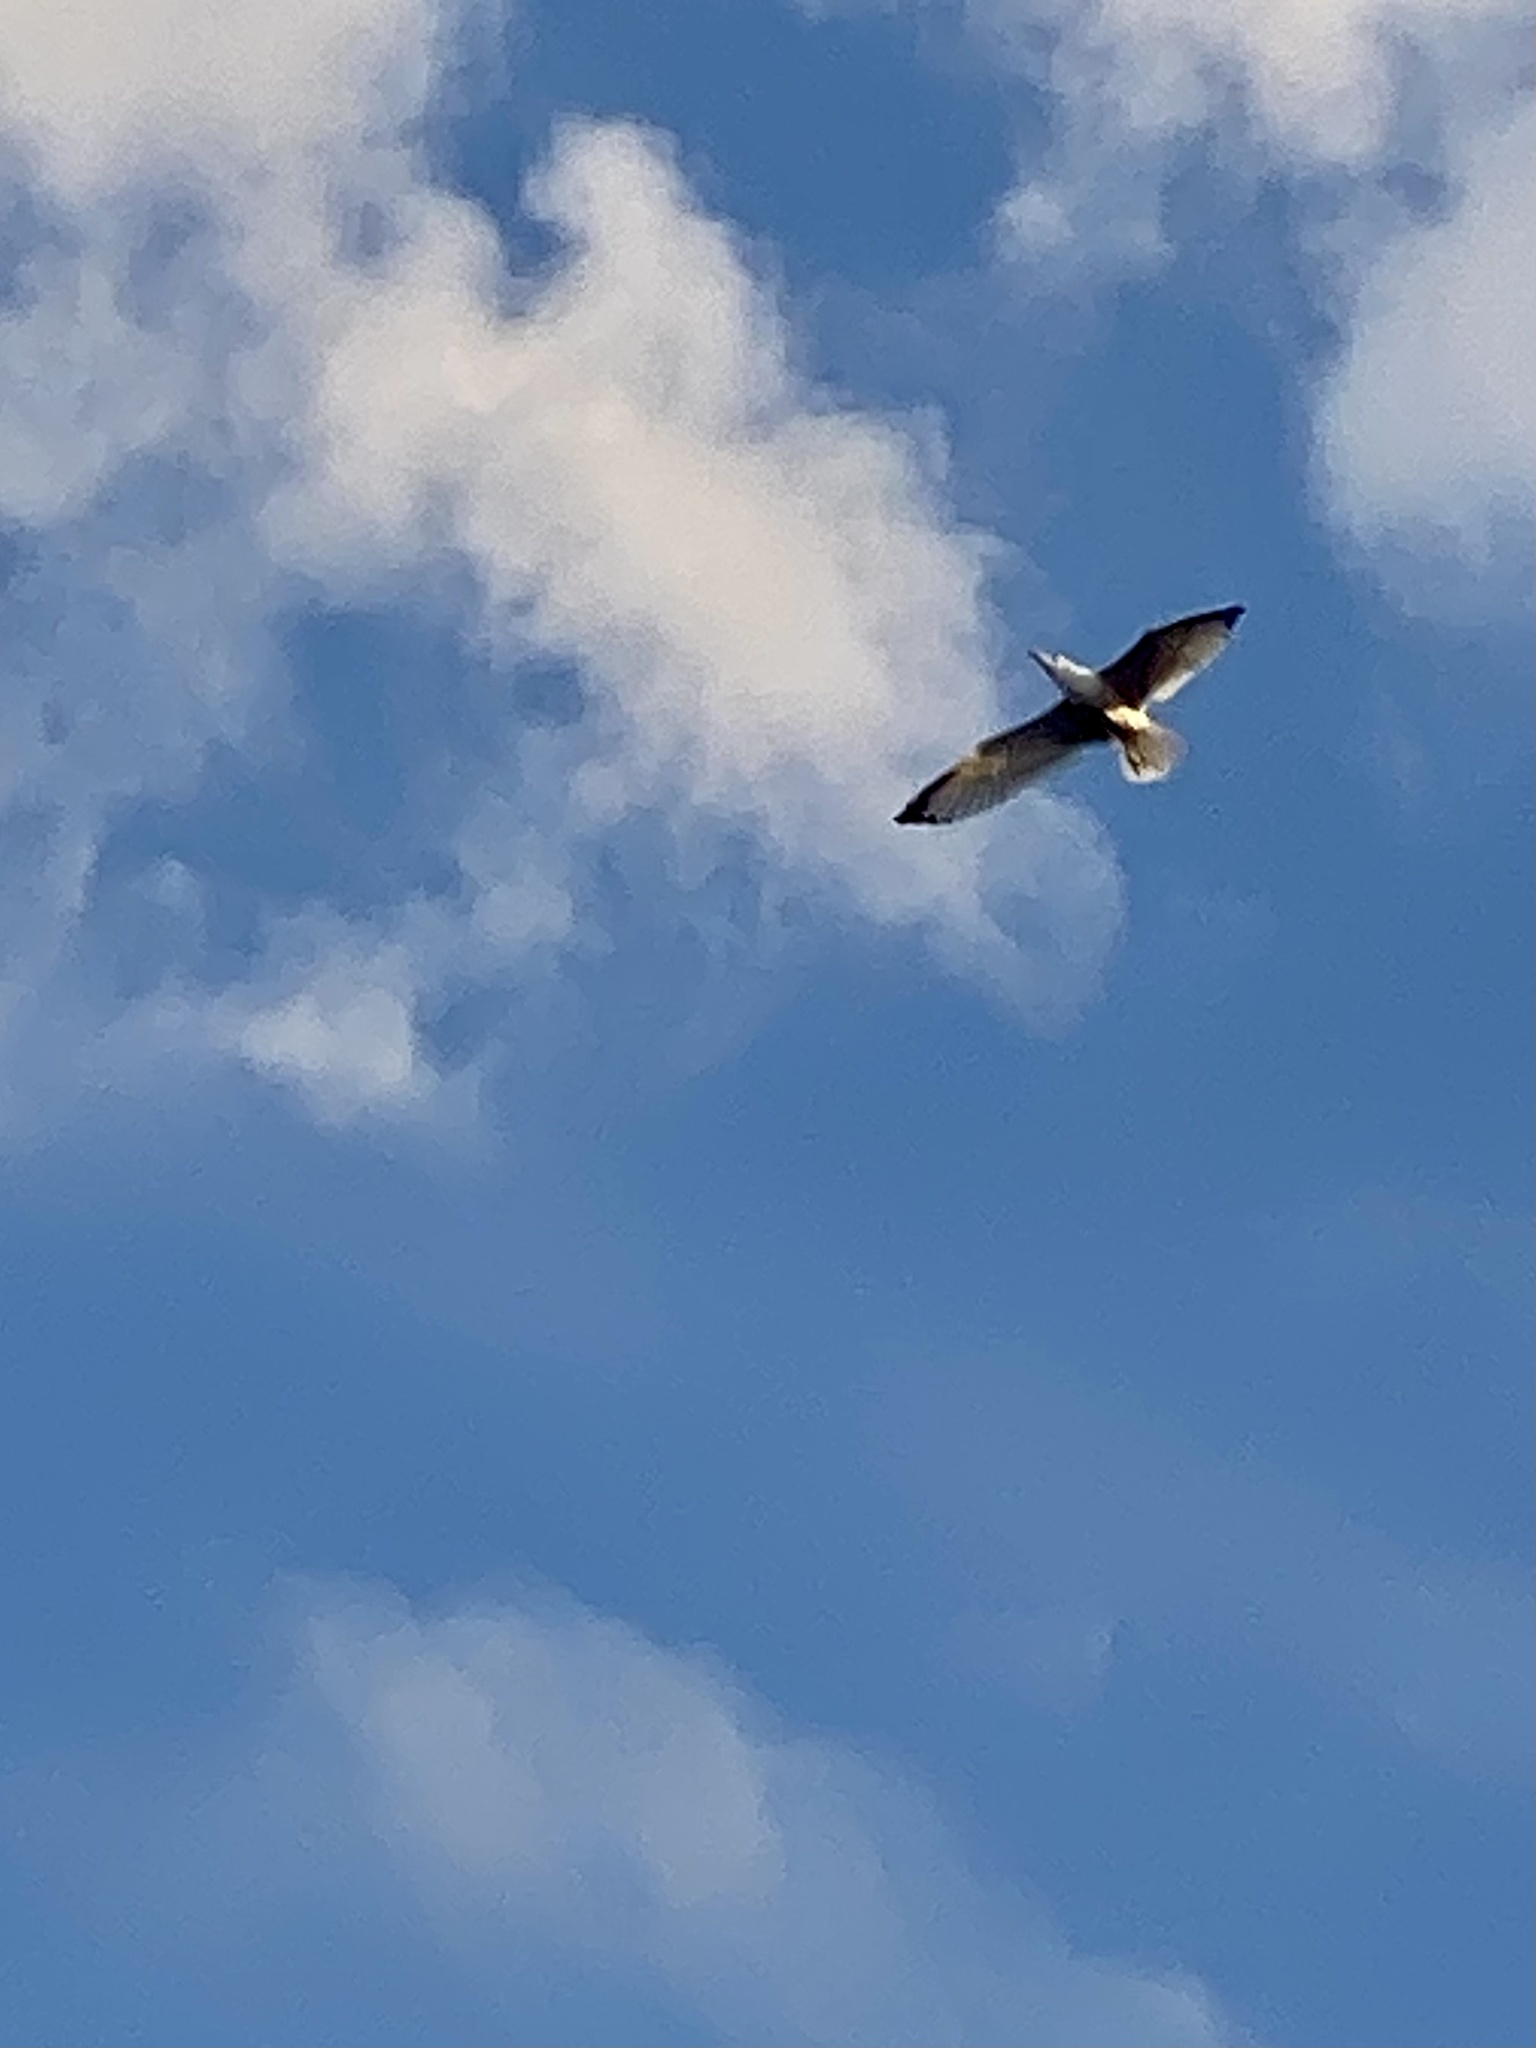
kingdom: Animalia
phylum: Chordata
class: Aves
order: Charadriiformes
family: Laridae
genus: Larus
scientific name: Larus delawarensis
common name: Ring-billed gull
